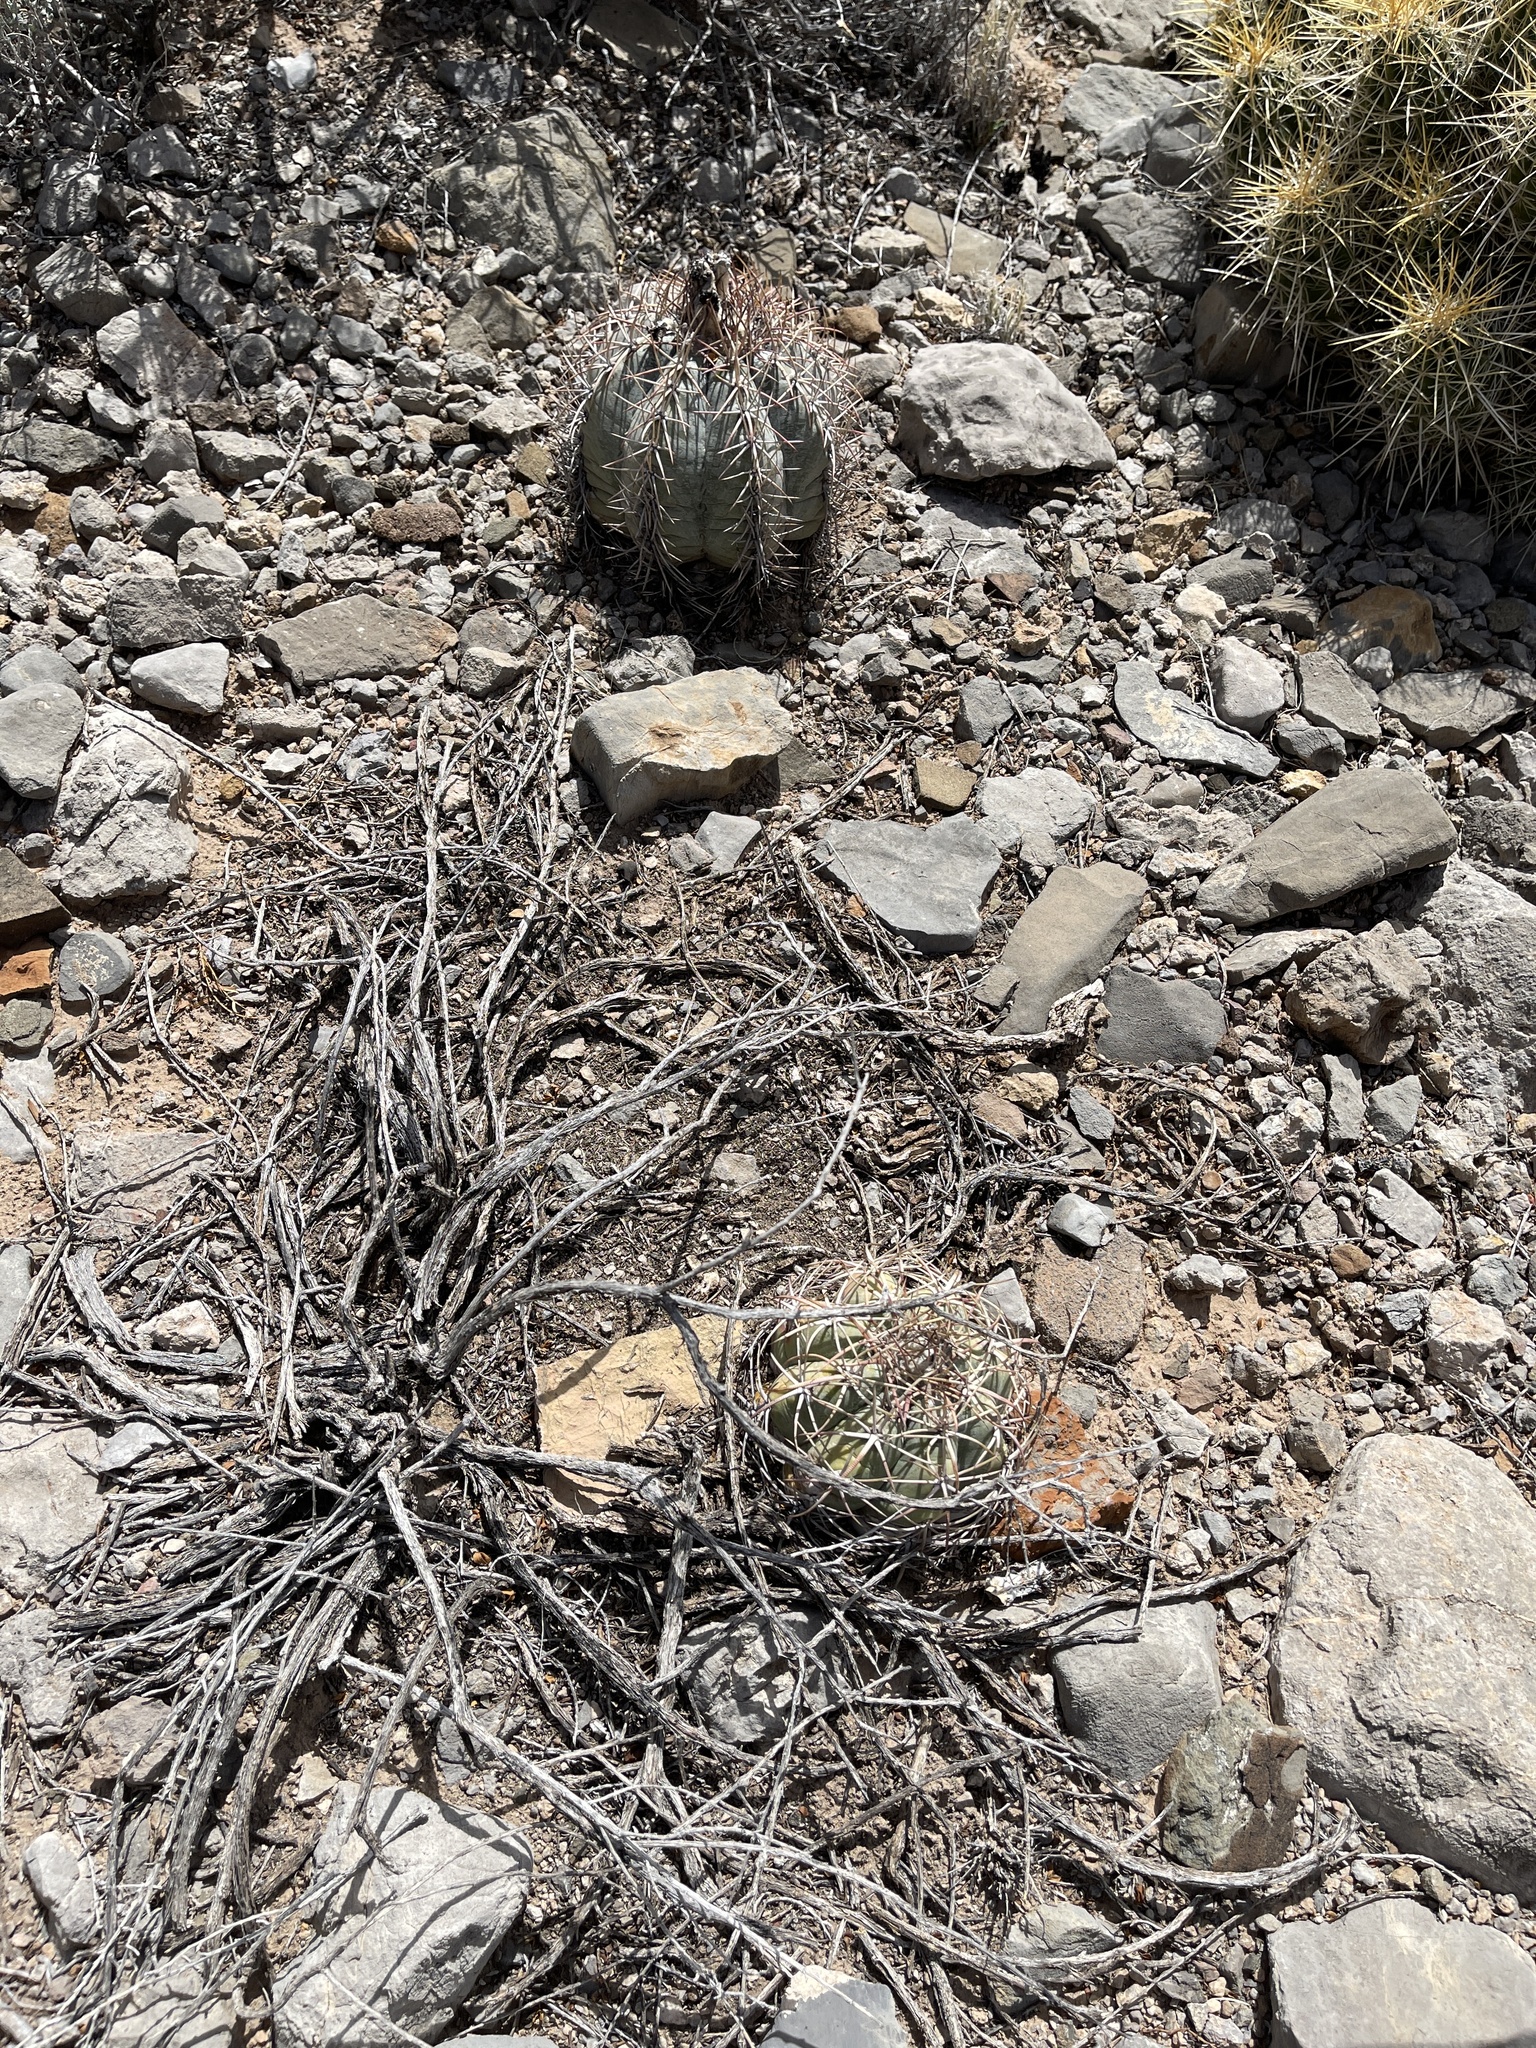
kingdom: Plantae
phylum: Tracheophyta
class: Magnoliopsida
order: Caryophyllales
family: Cactaceae
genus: Echinocactus
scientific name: Echinocactus horizonthalonius
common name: Devilshead
